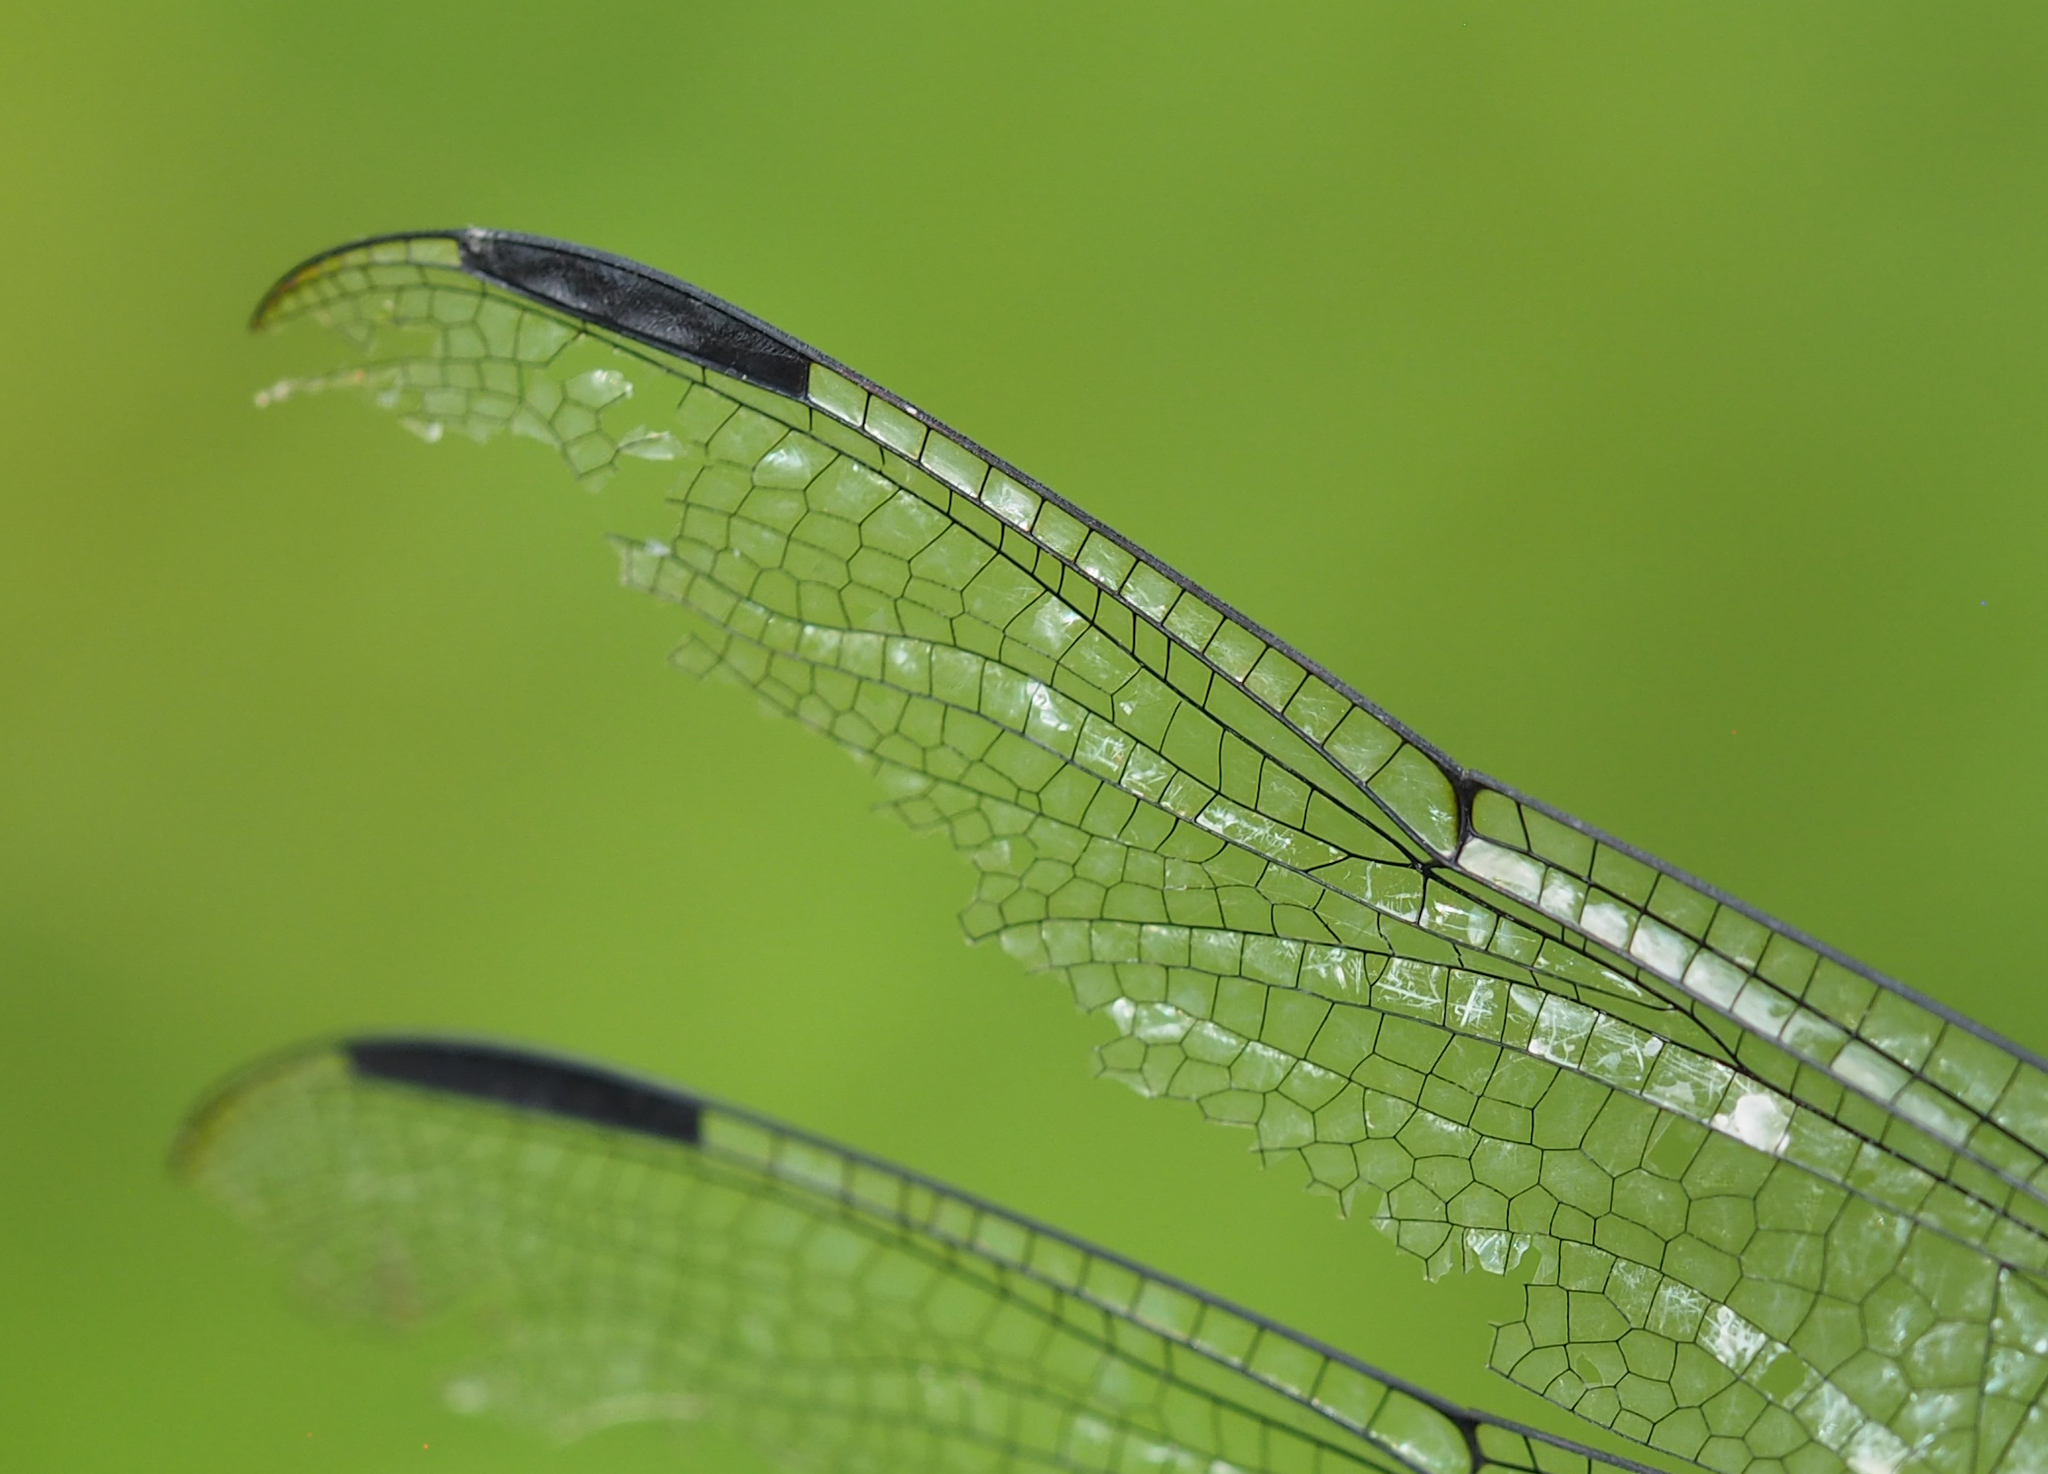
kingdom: Animalia
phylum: Arthropoda
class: Insecta
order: Odonata
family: Libellulidae
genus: Libellula
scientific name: Libellula incesta
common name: Slaty skimmer
